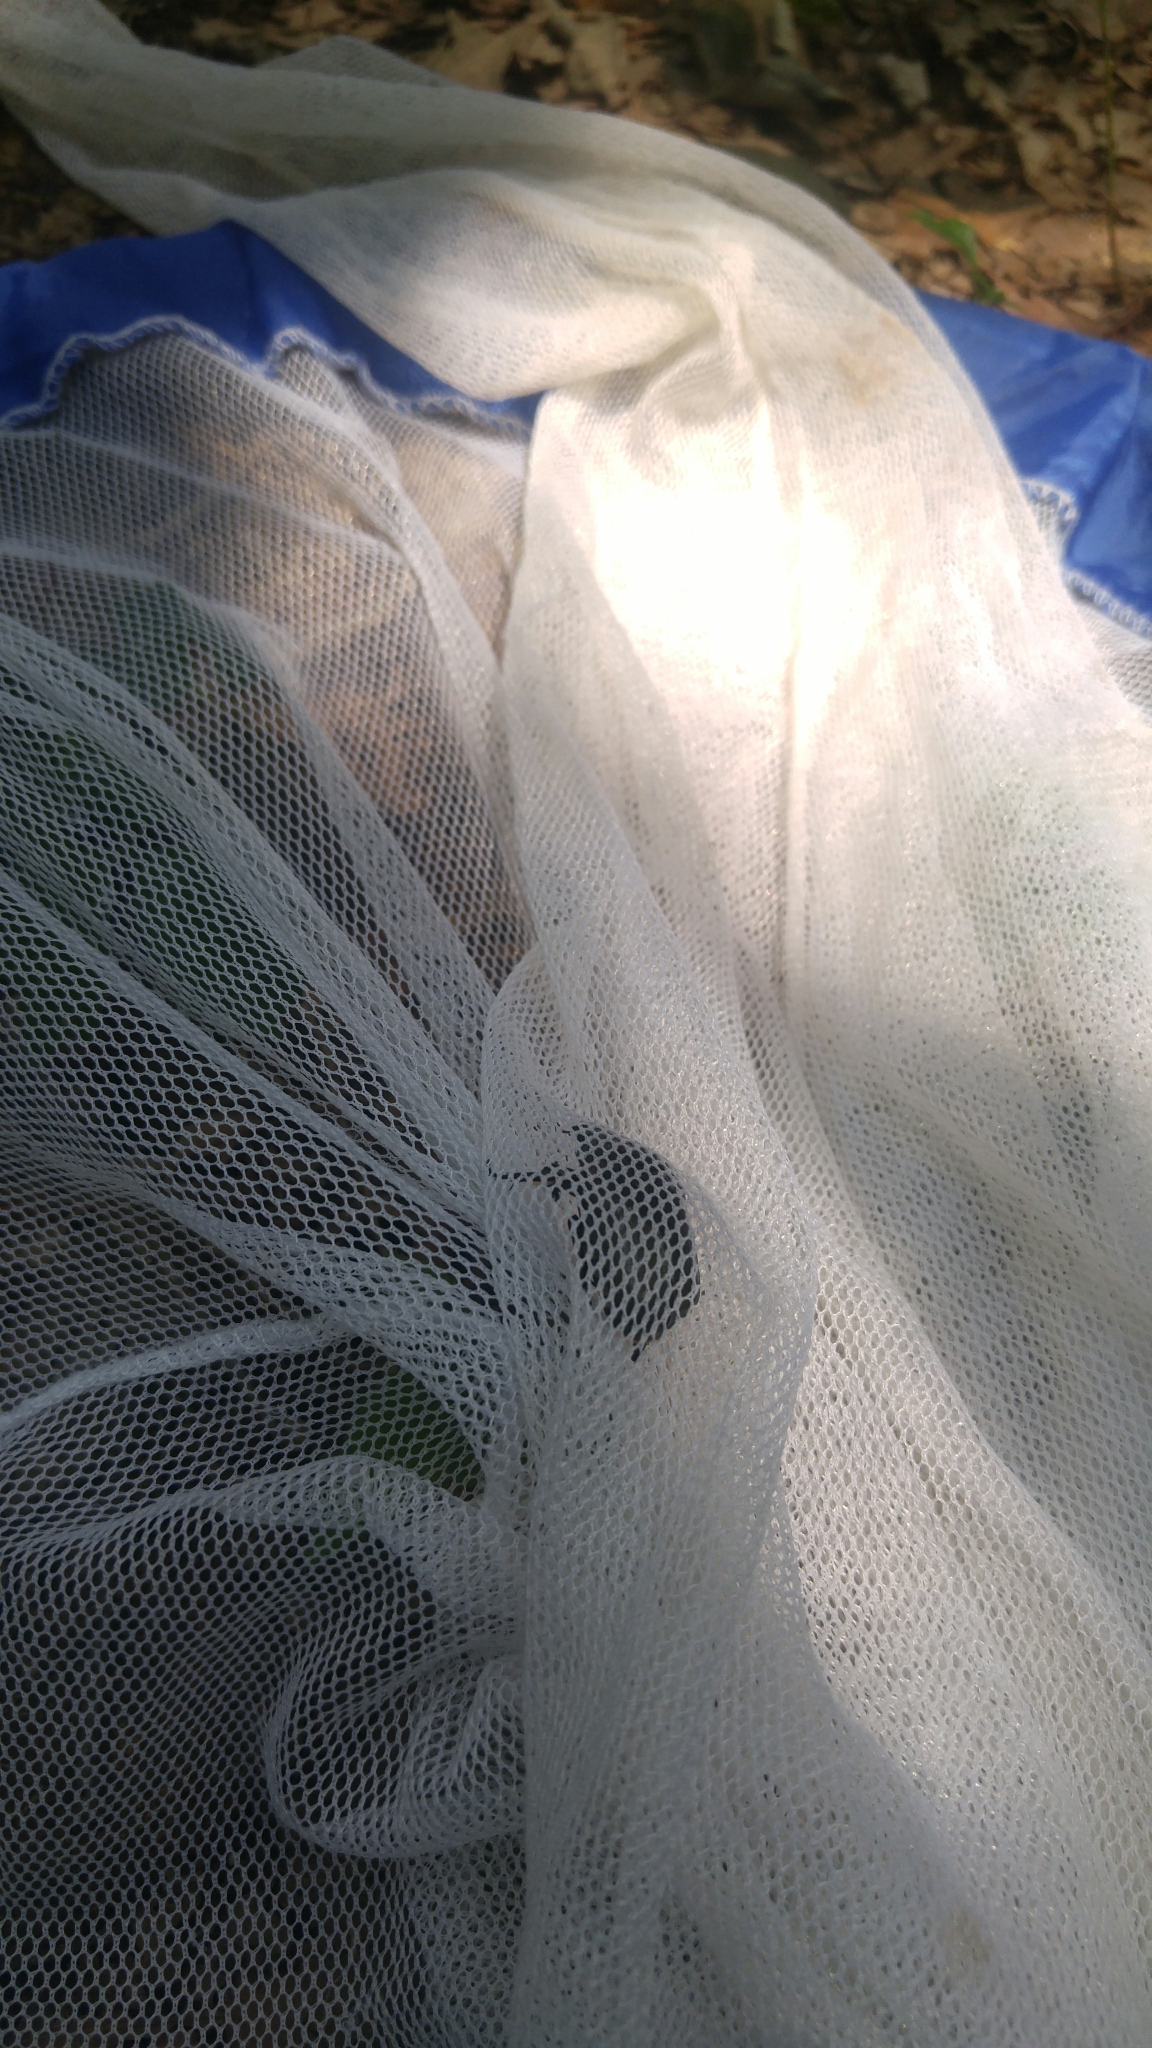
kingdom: Animalia
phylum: Arthropoda
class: Insecta
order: Coleoptera
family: Scarabaeidae
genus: Pseudotorynorrhina
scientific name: Pseudotorynorrhina japonica
